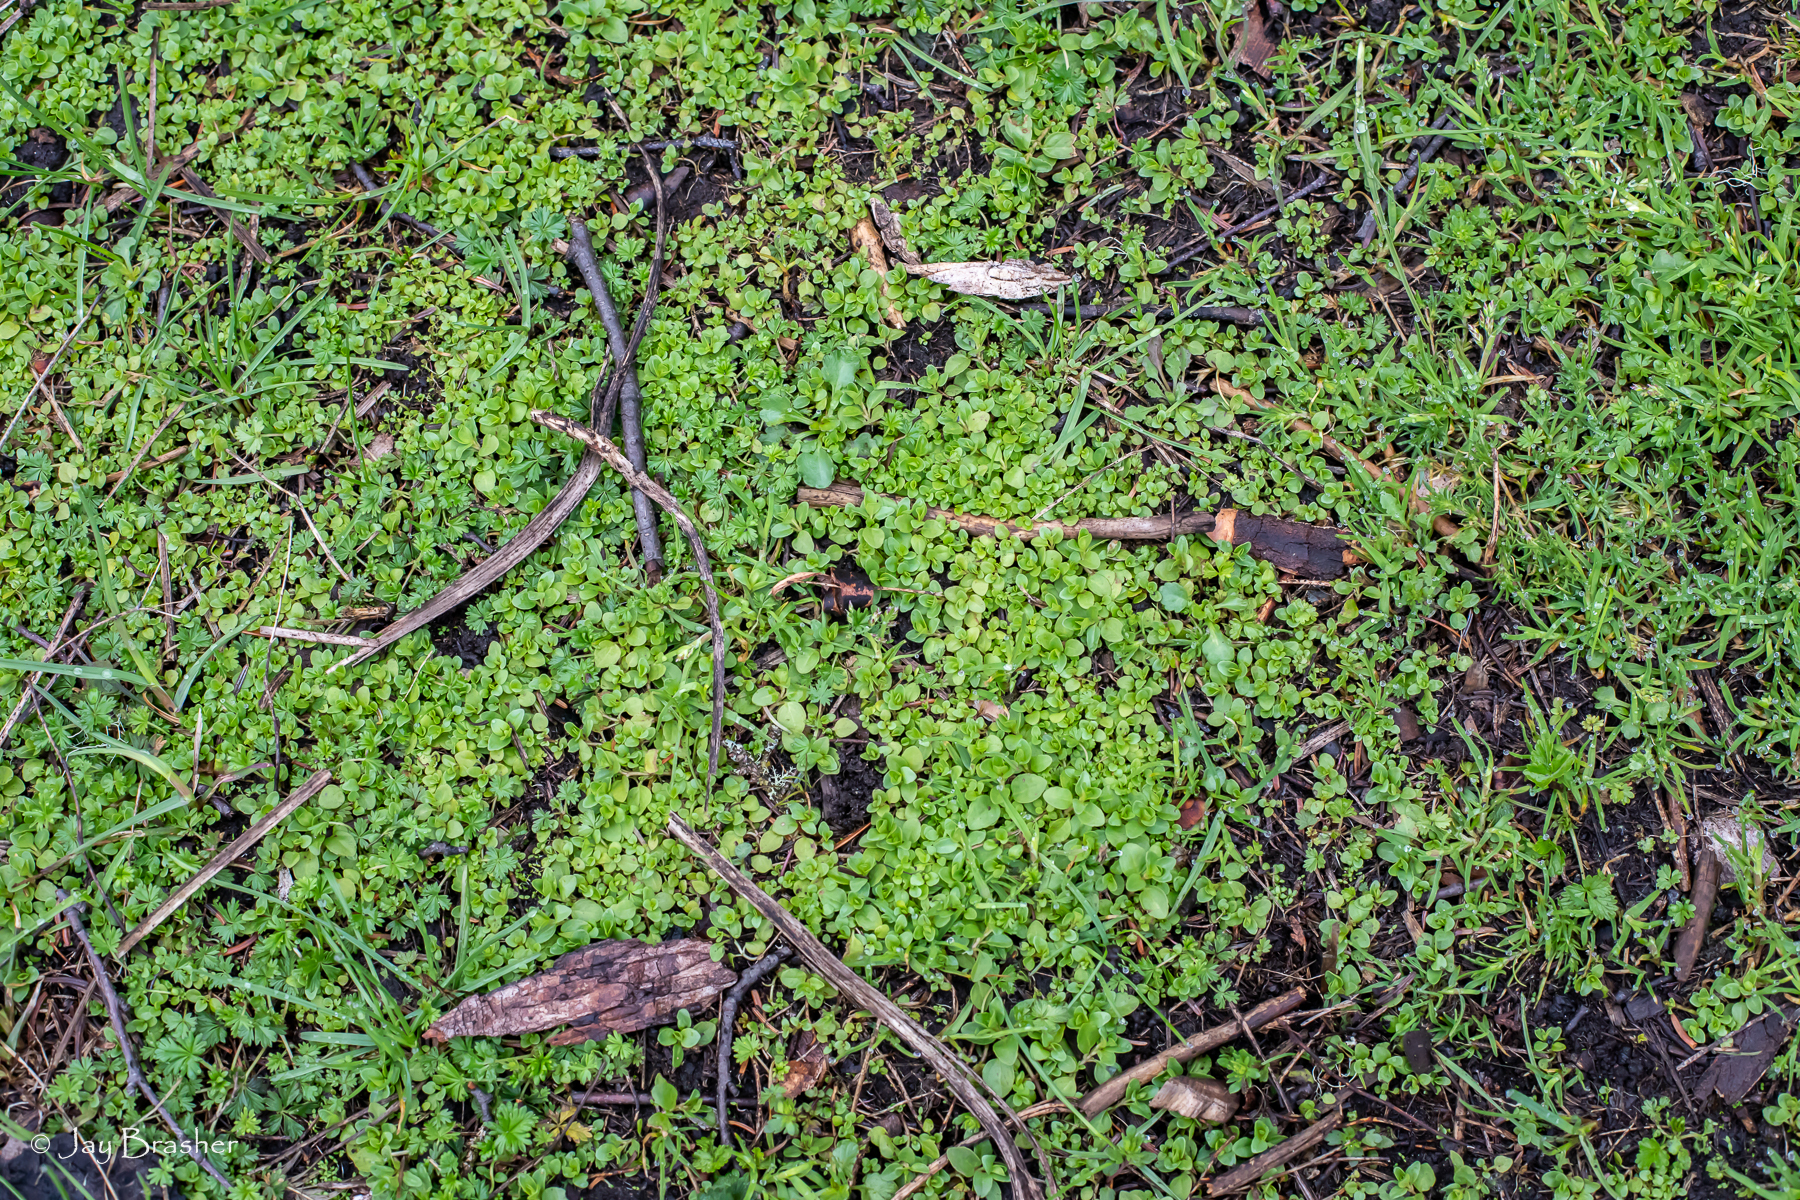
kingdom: Plantae
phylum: Tracheophyta
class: Magnoliopsida
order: Lamiales
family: Plantaginaceae
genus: Veronica
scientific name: Veronica serpyllifolia
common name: Thyme-leaved speedwell
